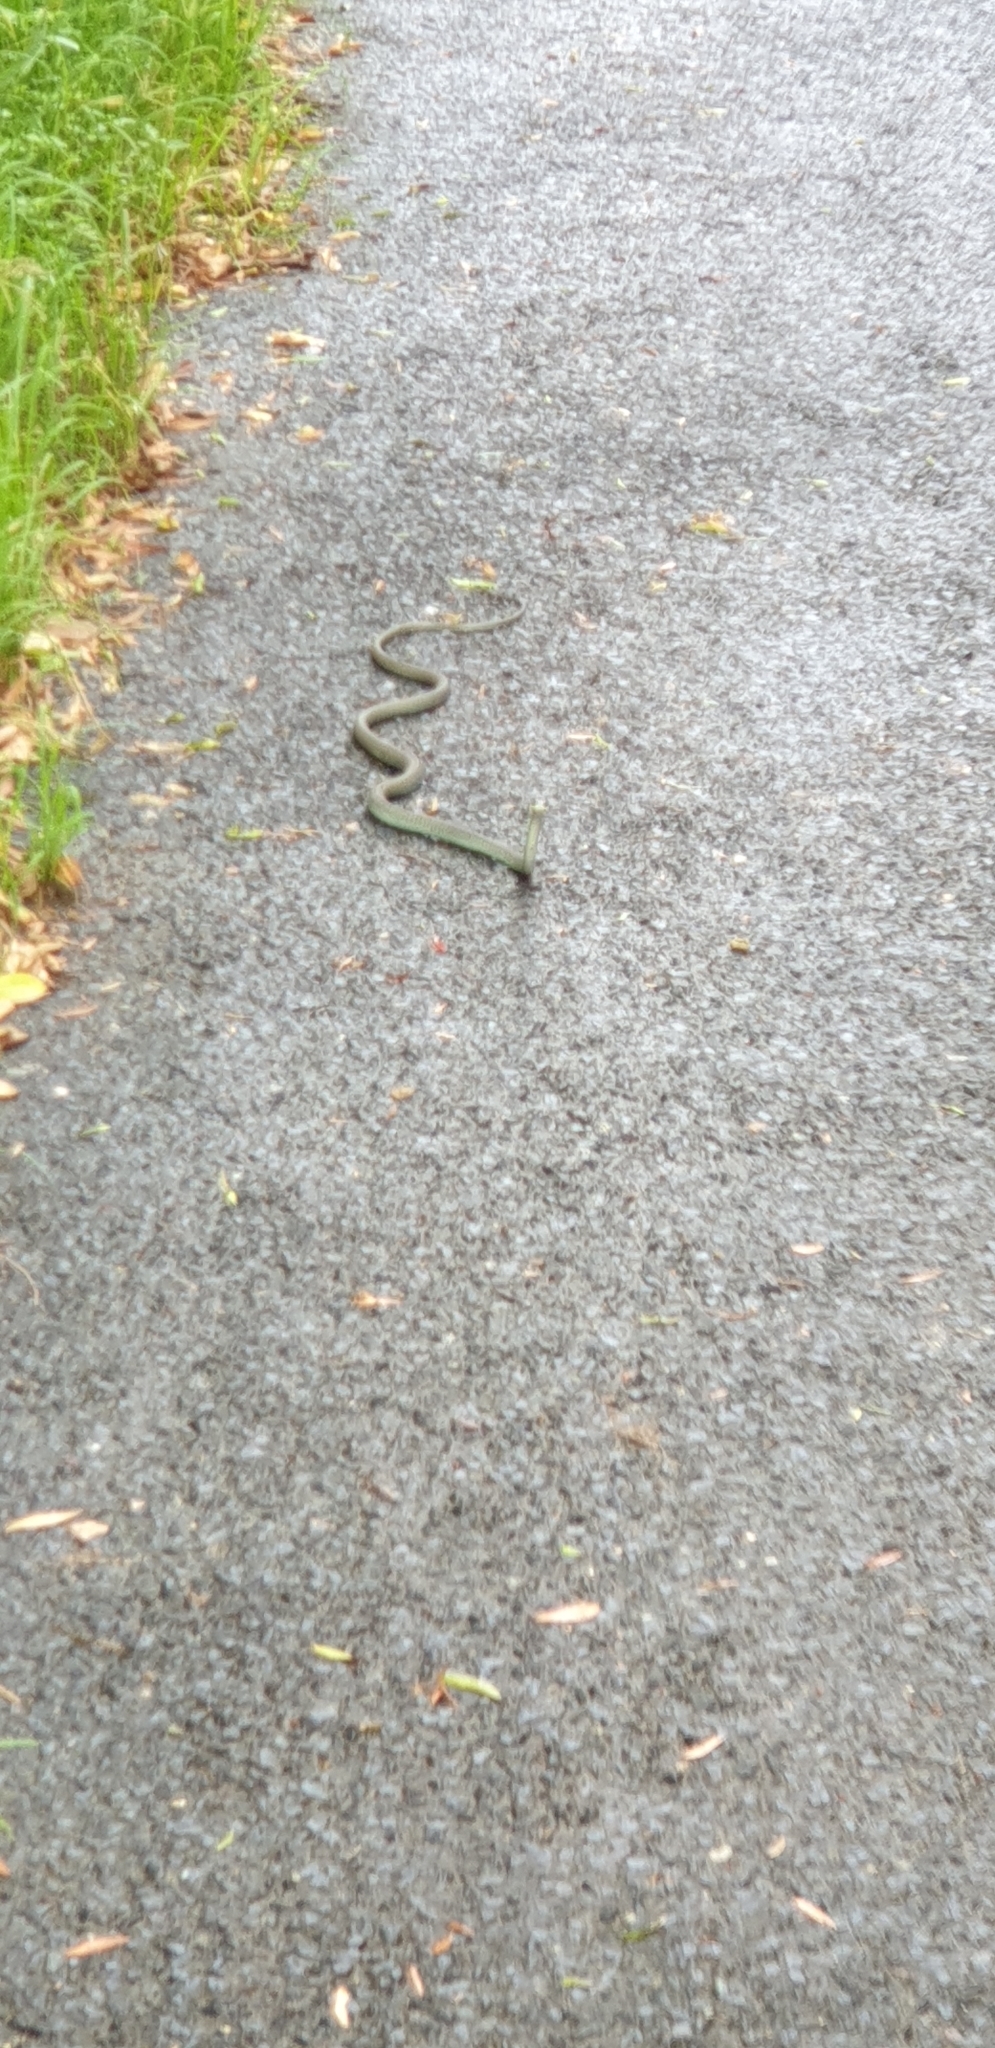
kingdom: Animalia
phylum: Chordata
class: Squamata
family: Colubridae
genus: Dendrelaphis
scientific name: Dendrelaphis punctulatus
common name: Common tree snake
